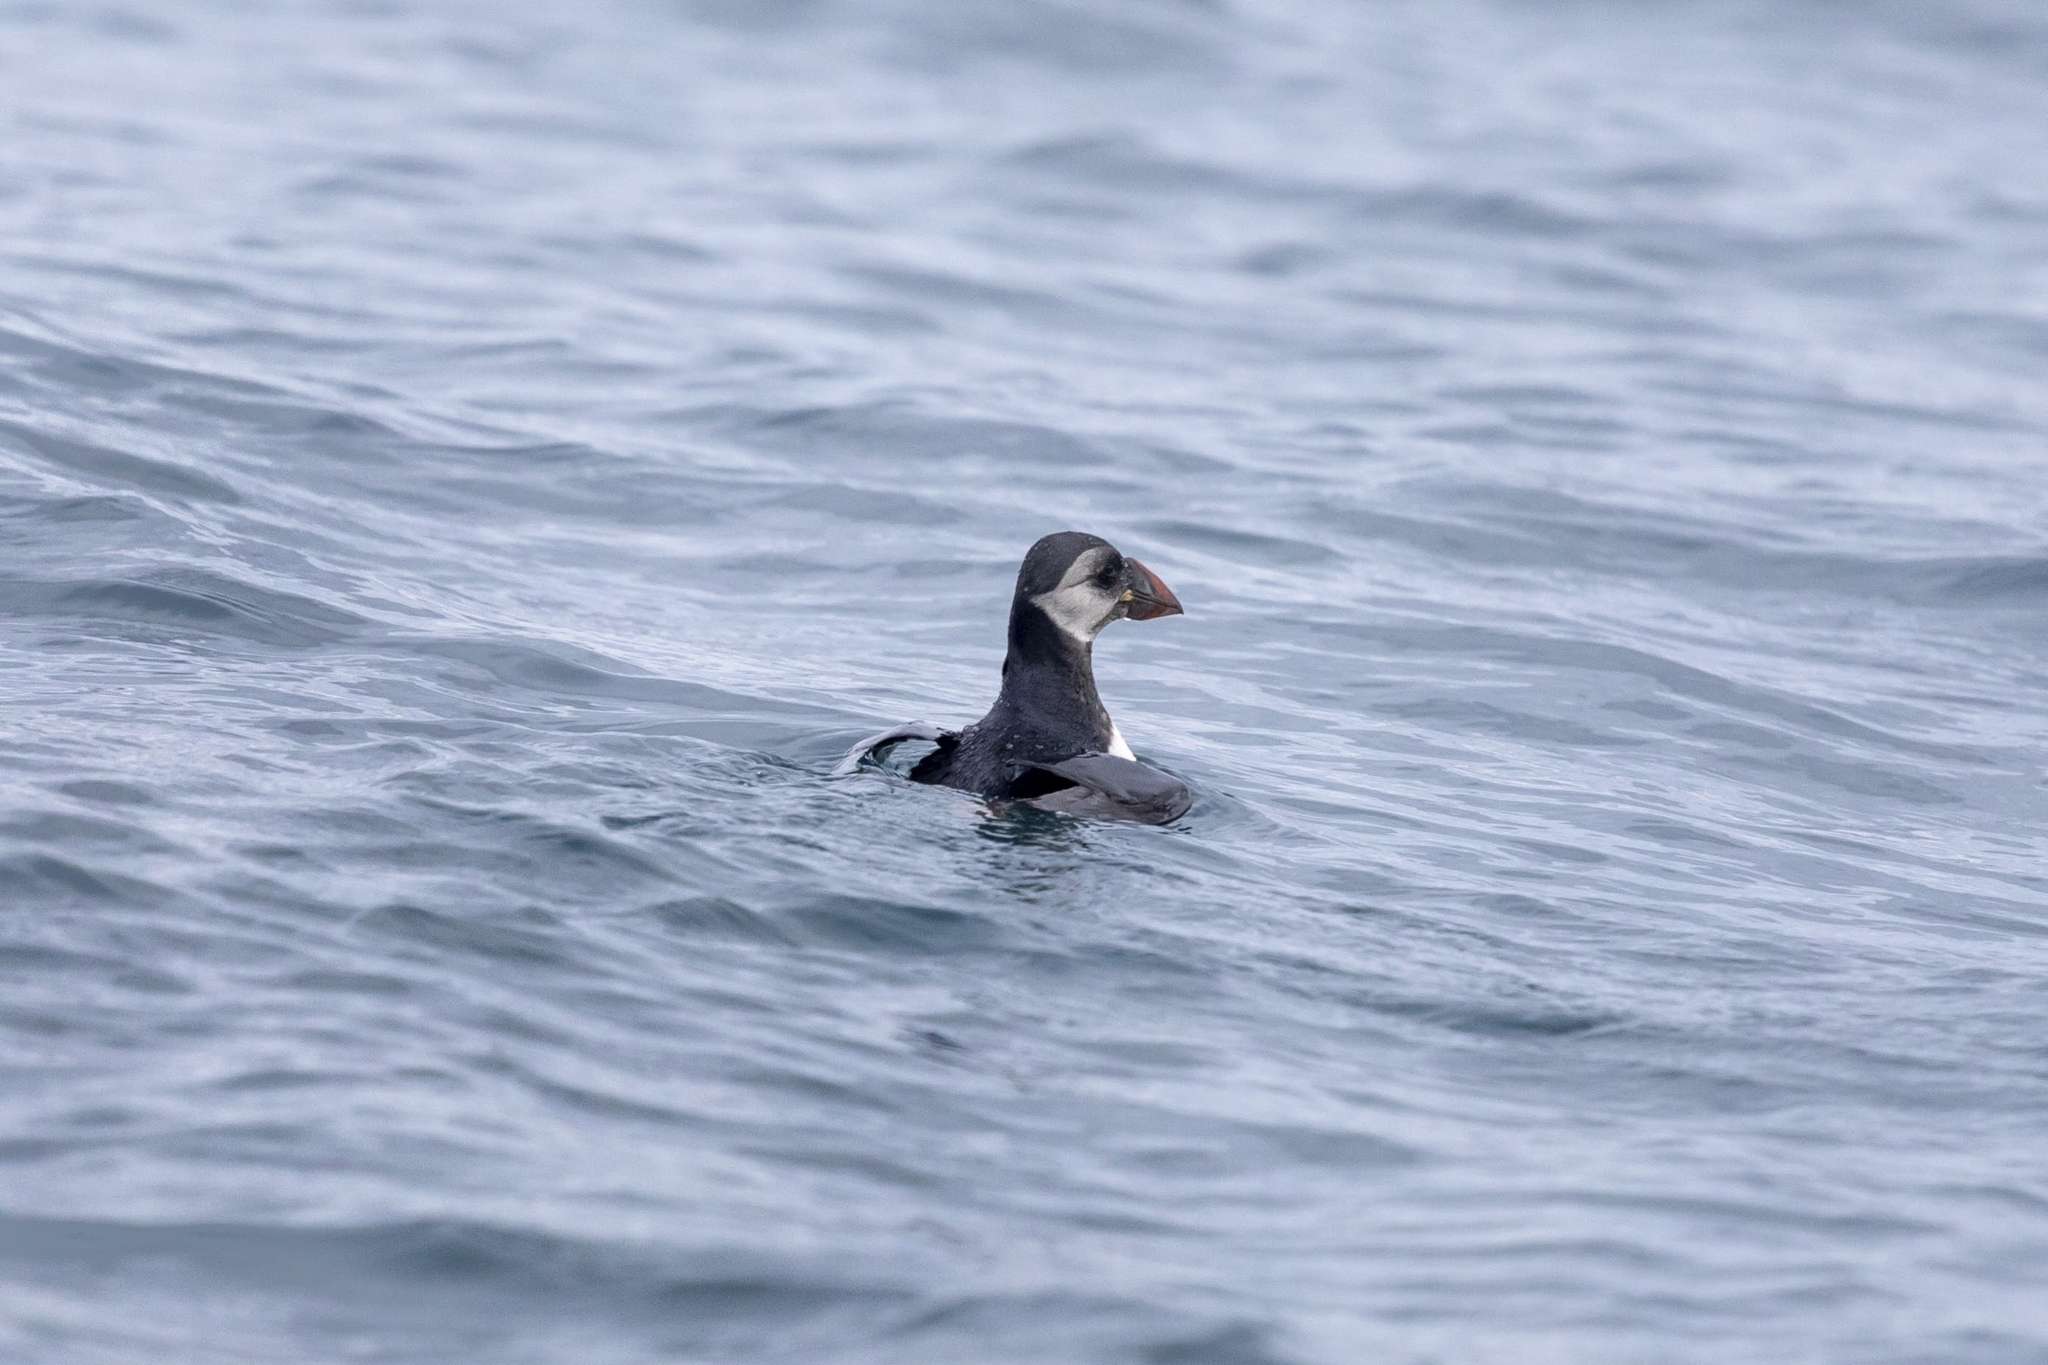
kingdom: Animalia
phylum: Chordata
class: Aves
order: Charadriiformes
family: Alcidae
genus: Fratercula
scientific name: Fratercula arctica
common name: Atlantic puffin
